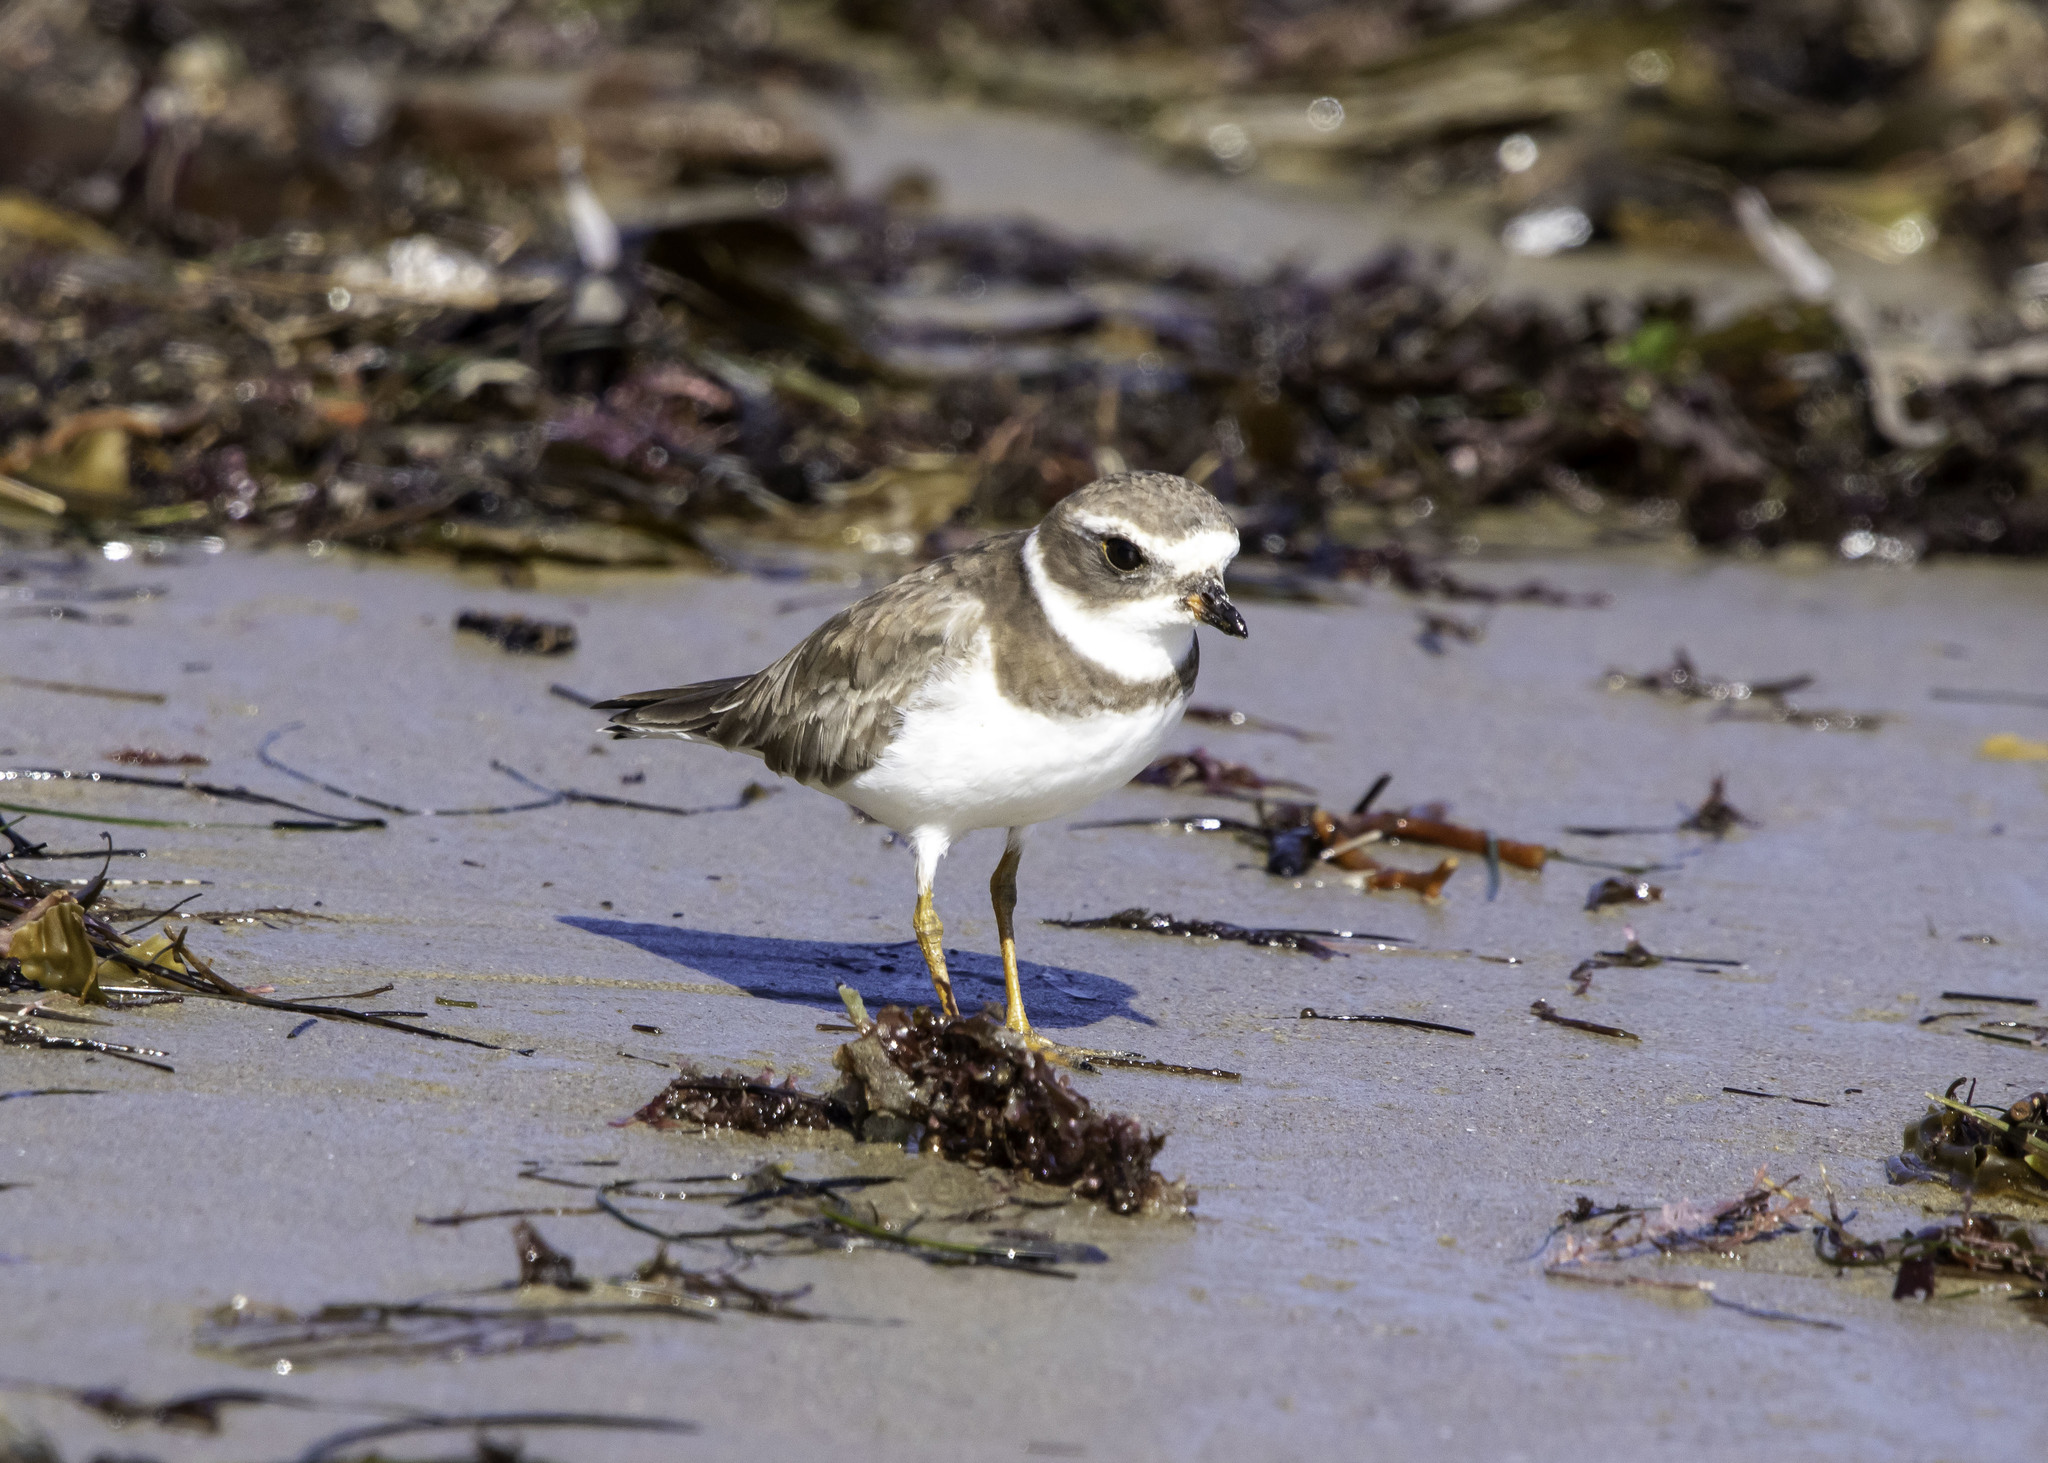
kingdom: Animalia
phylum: Chordata
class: Aves
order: Charadriiformes
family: Charadriidae
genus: Charadrius
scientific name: Charadrius semipalmatus
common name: Semipalmated plover
